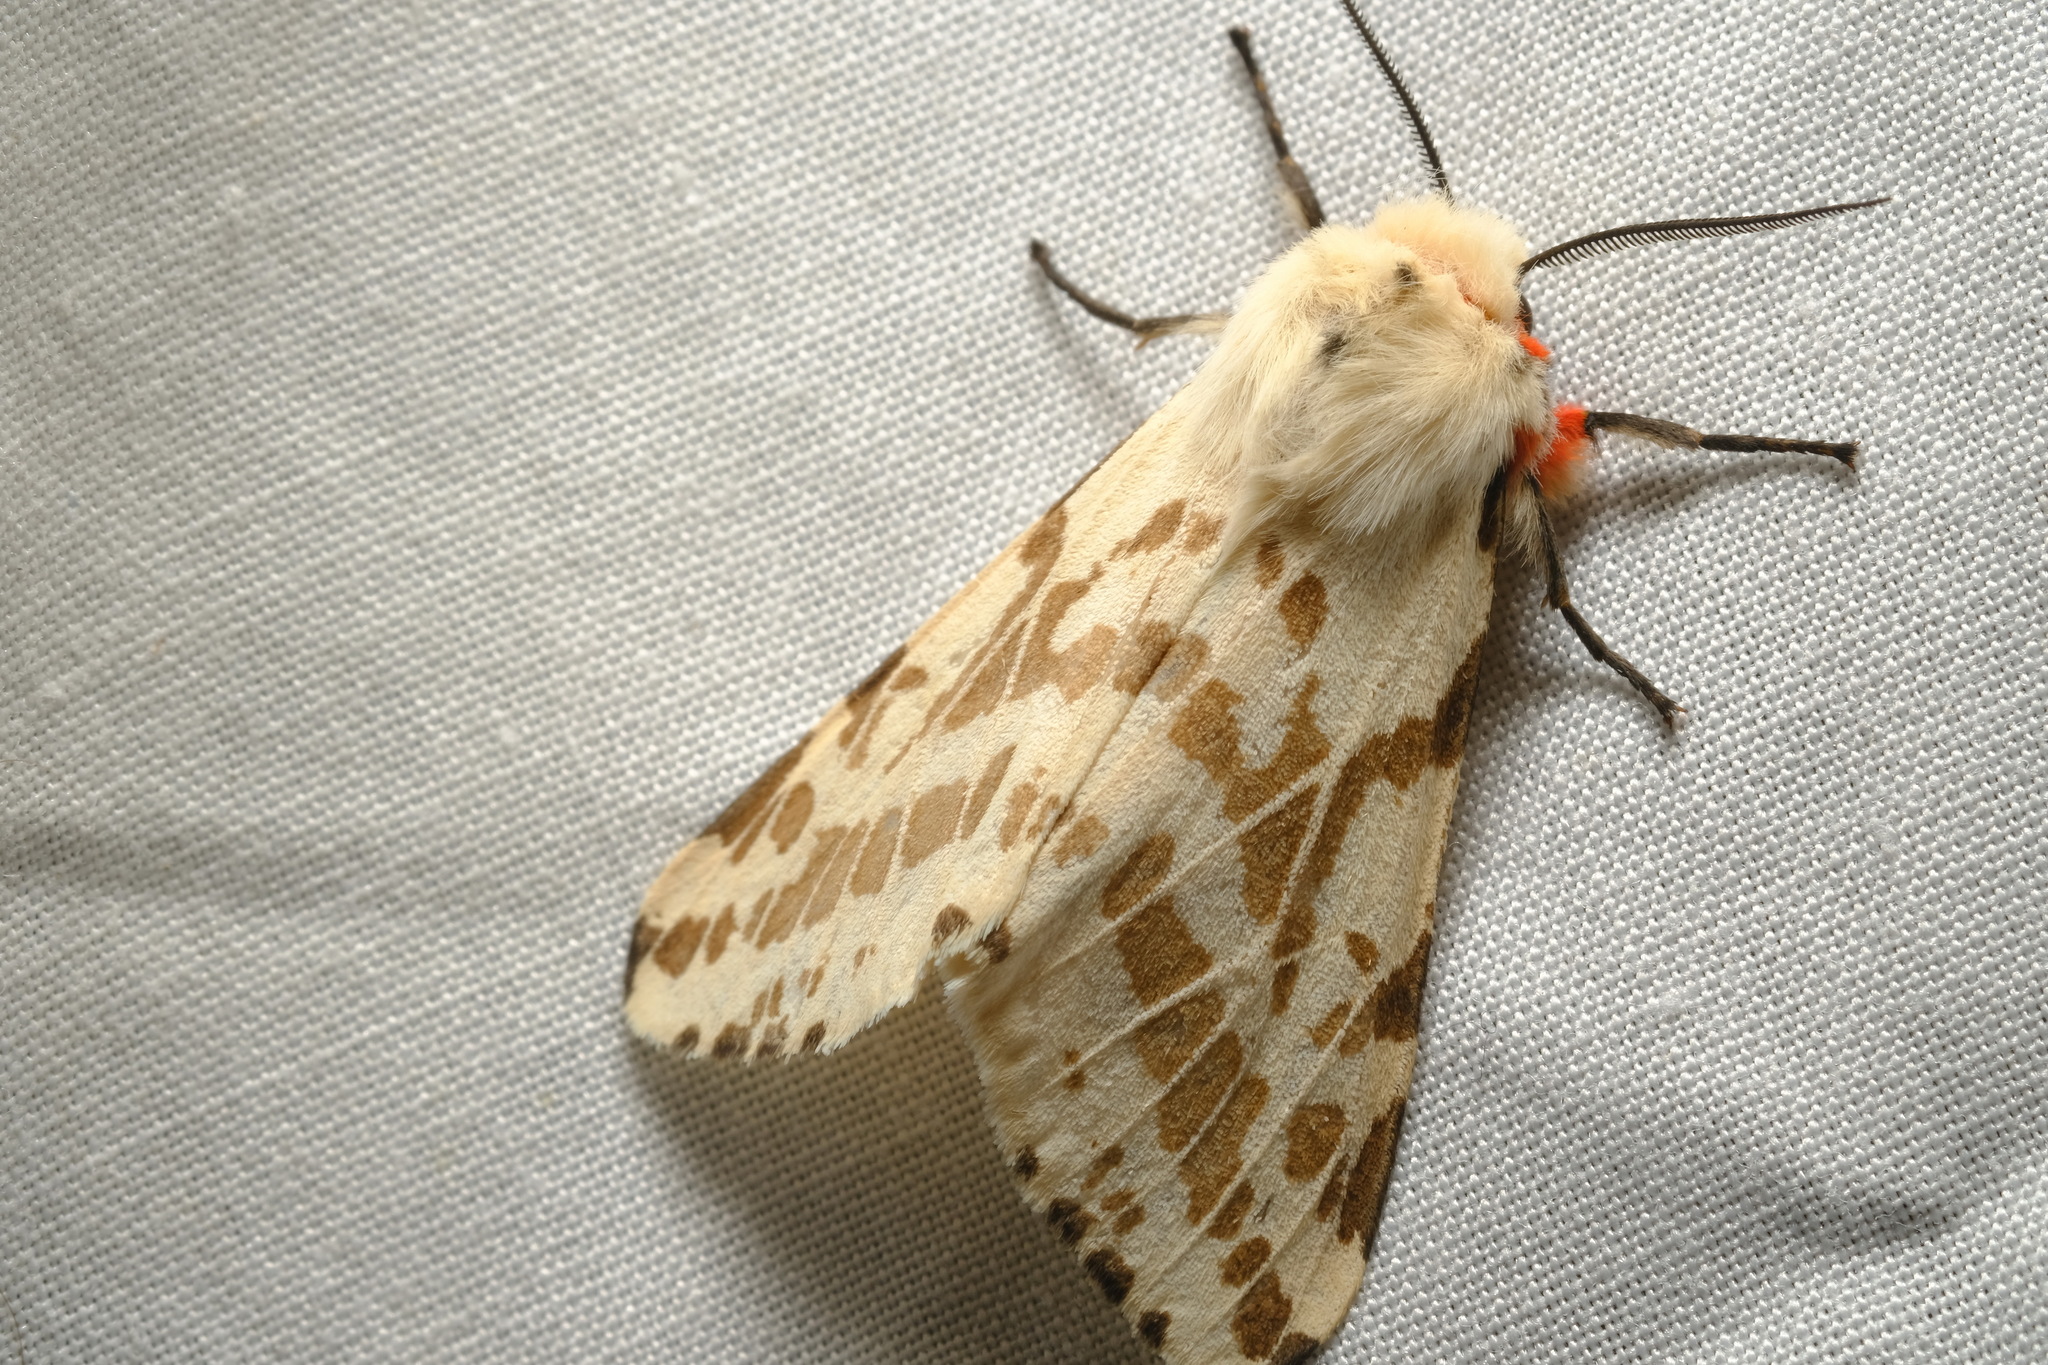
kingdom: Animalia
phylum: Arthropoda
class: Insecta
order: Lepidoptera
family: Erebidae
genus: Ardices
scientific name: Ardices glatignyi
